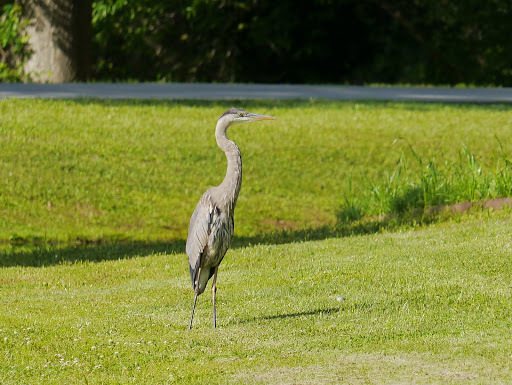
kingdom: Animalia
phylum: Chordata
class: Aves
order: Pelecaniformes
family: Ardeidae
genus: Ardea
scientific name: Ardea herodias
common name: Great blue heron
